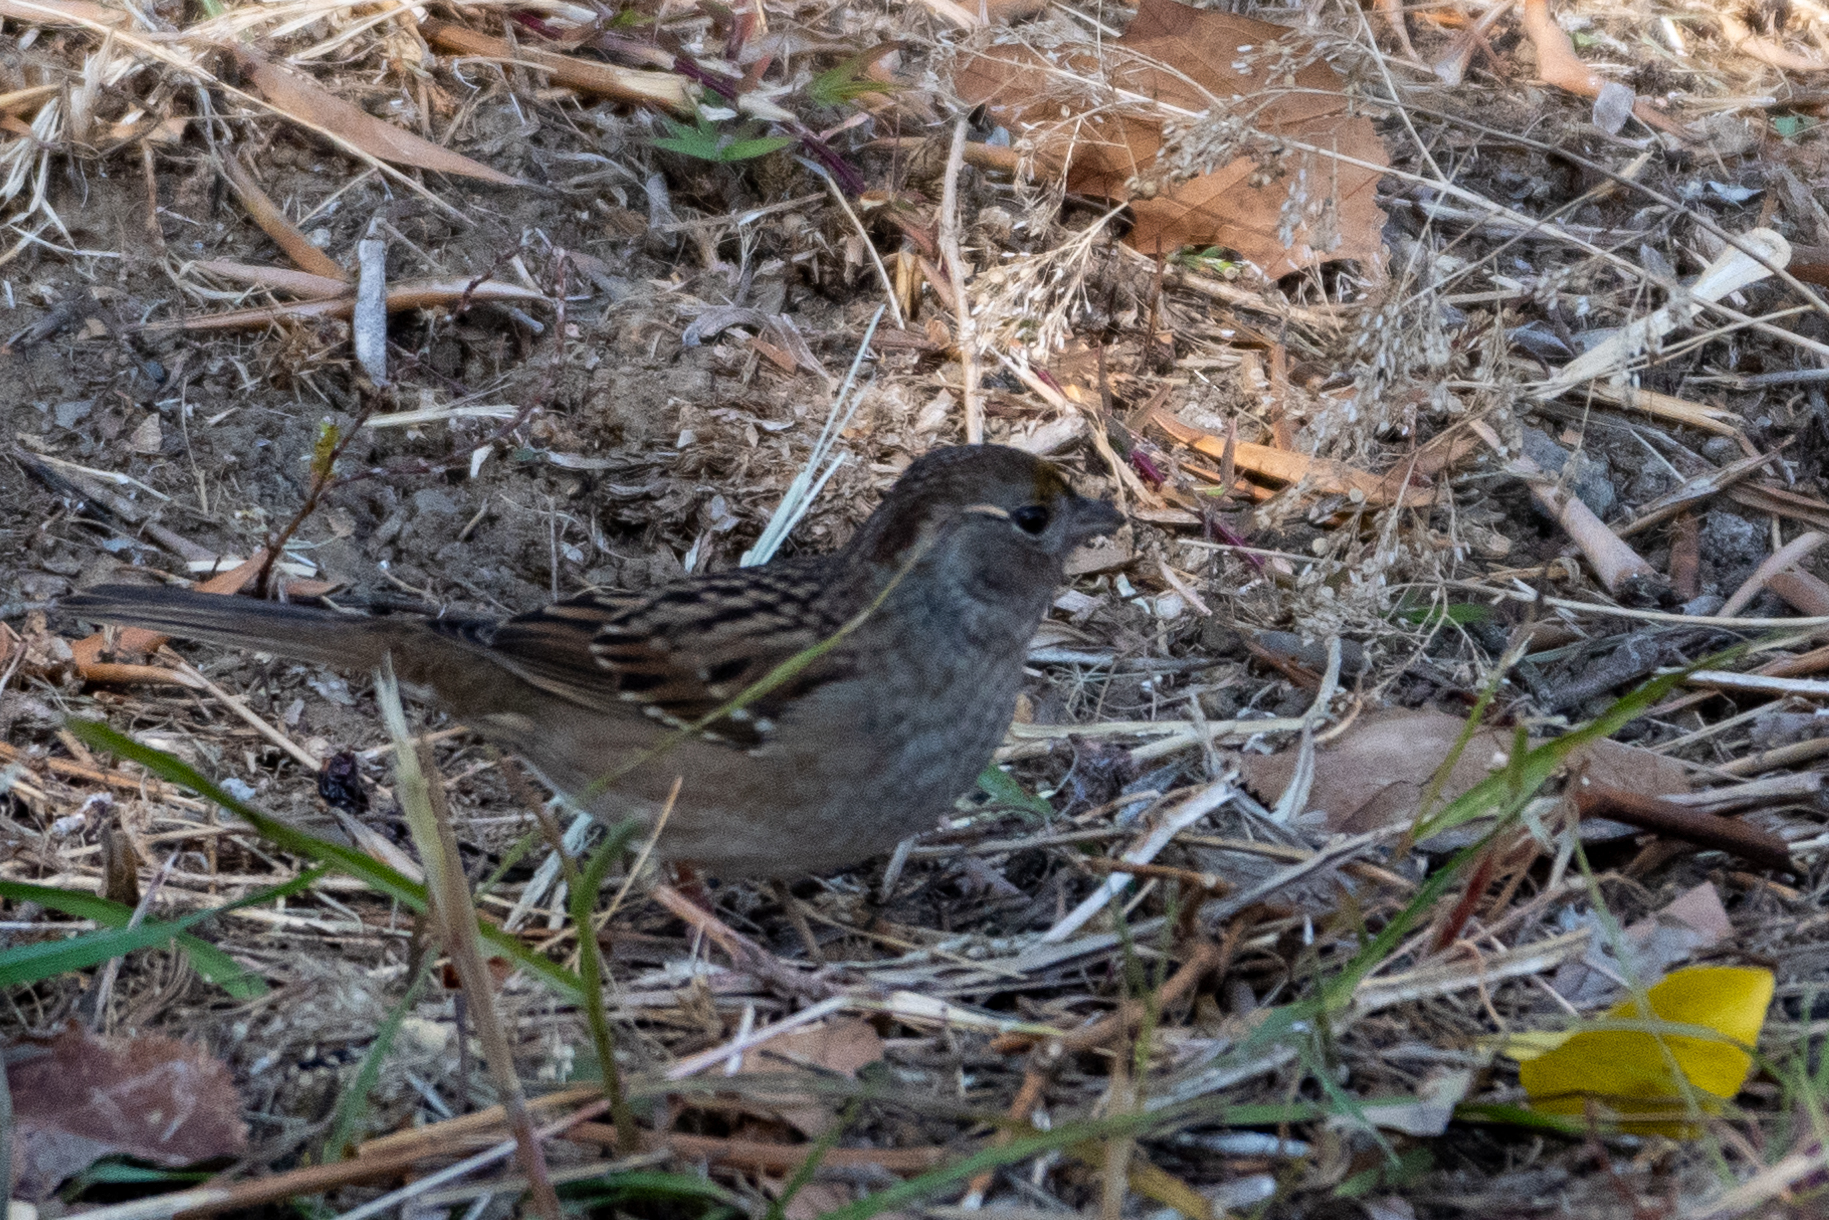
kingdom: Animalia
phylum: Chordata
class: Aves
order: Passeriformes
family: Passerellidae
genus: Zonotrichia
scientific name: Zonotrichia atricapilla
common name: Golden-crowned sparrow
